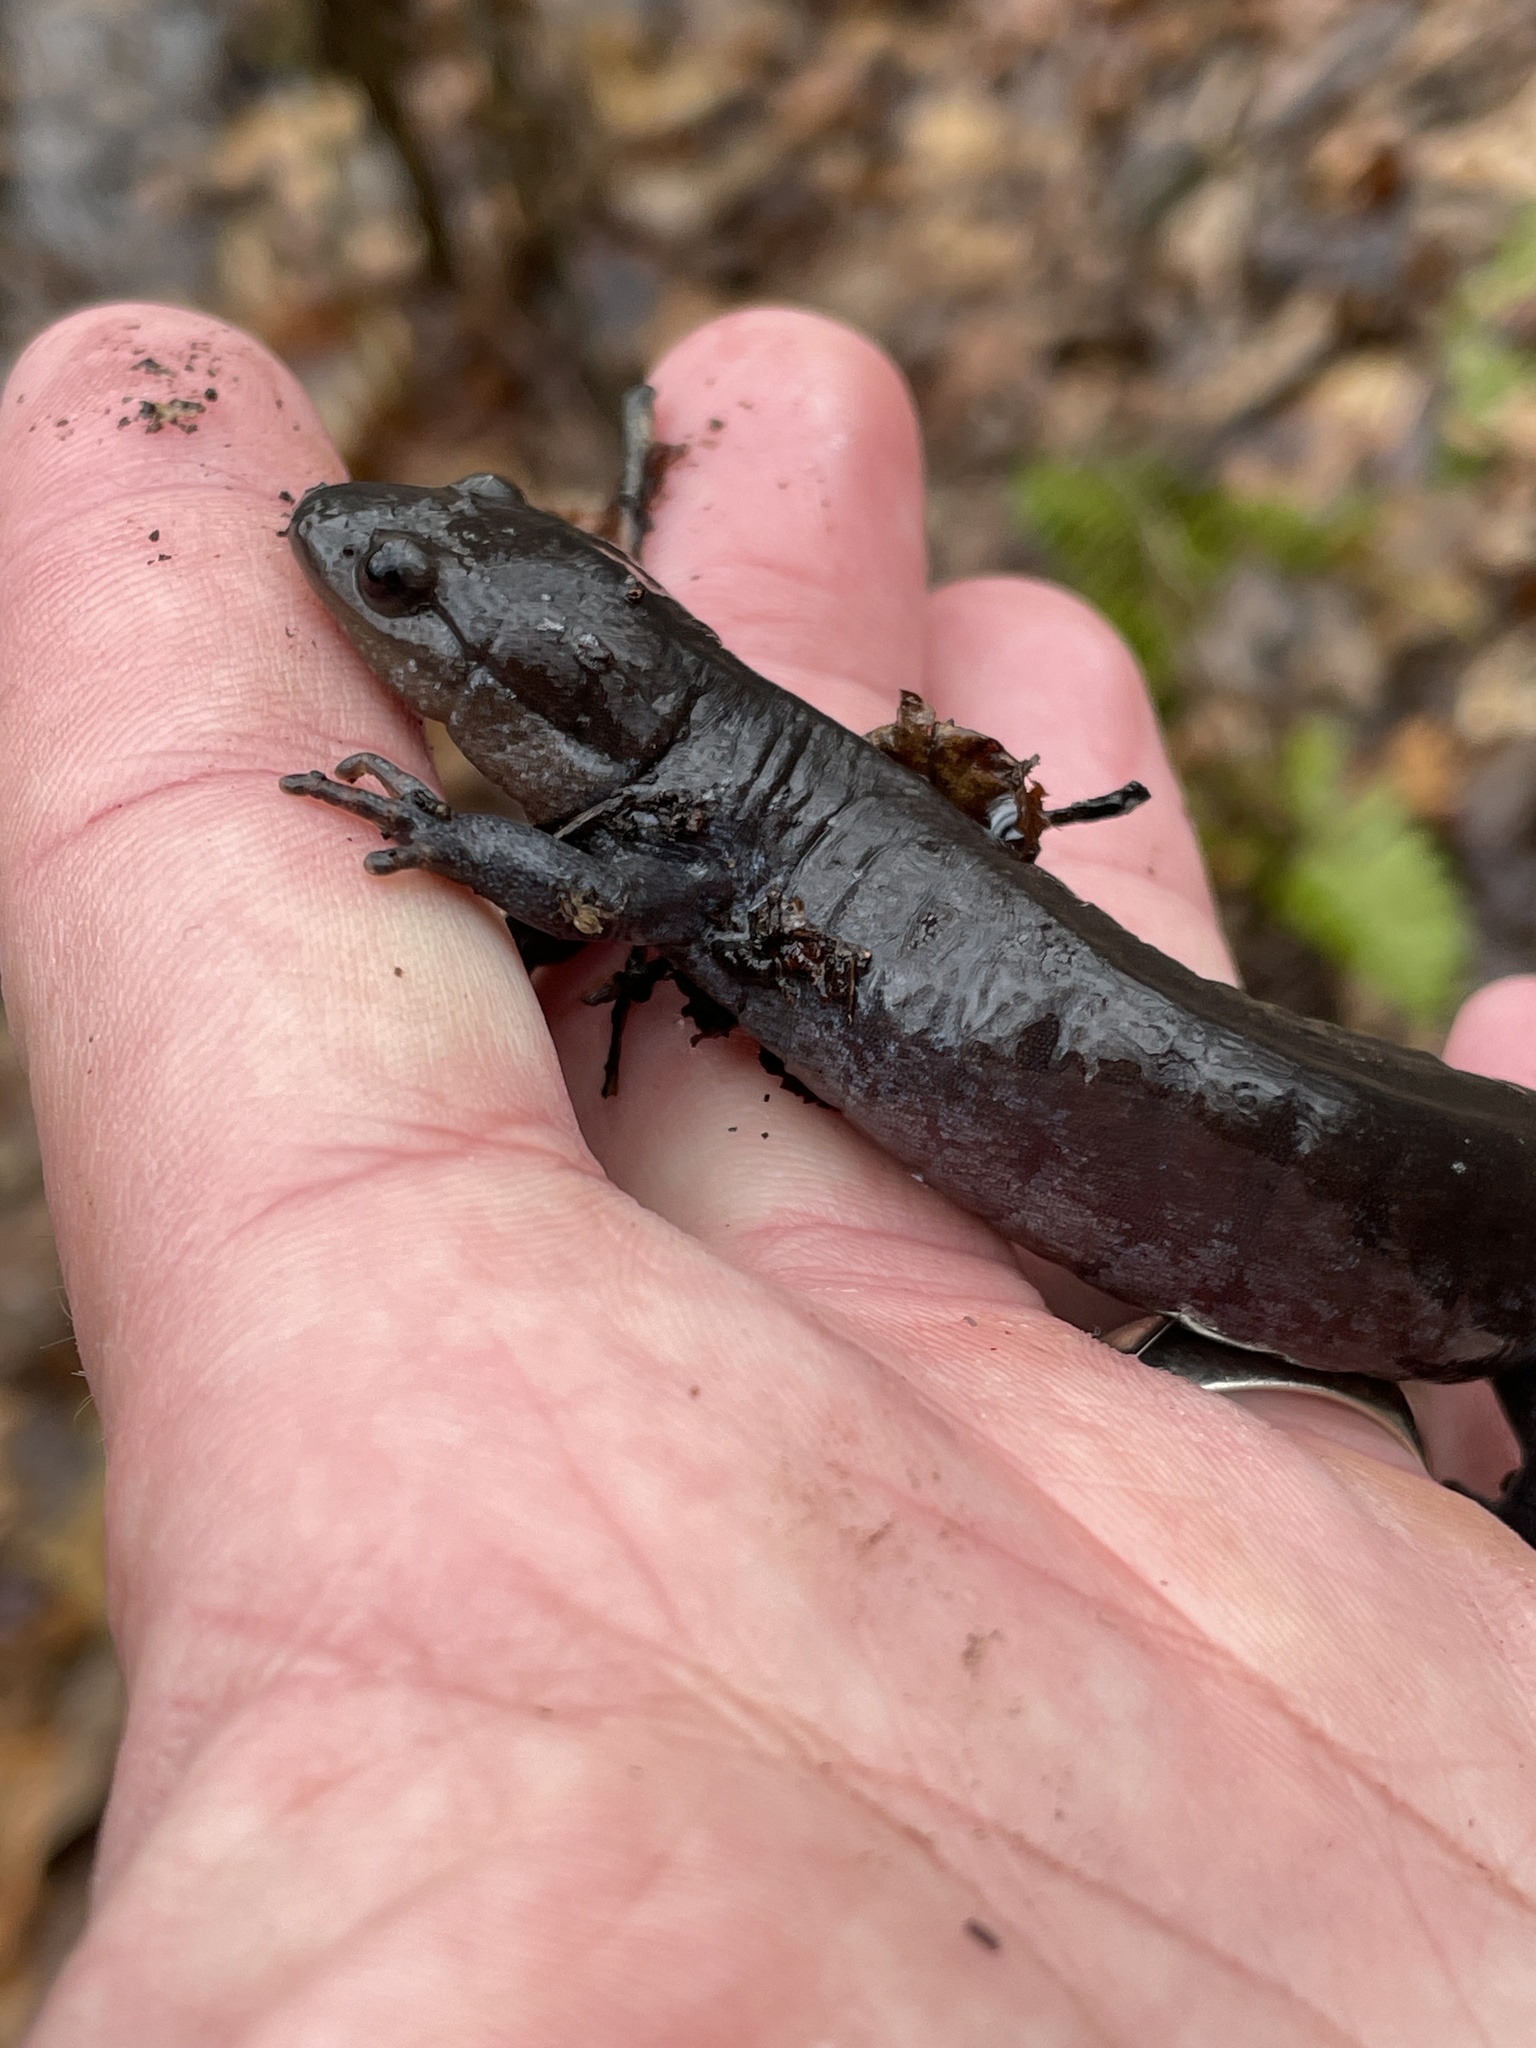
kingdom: Animalia
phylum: Chordata
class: Amphibia
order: Caudata
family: Ambystomatidae
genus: Ambystoma
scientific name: Ambystoma unisexual
